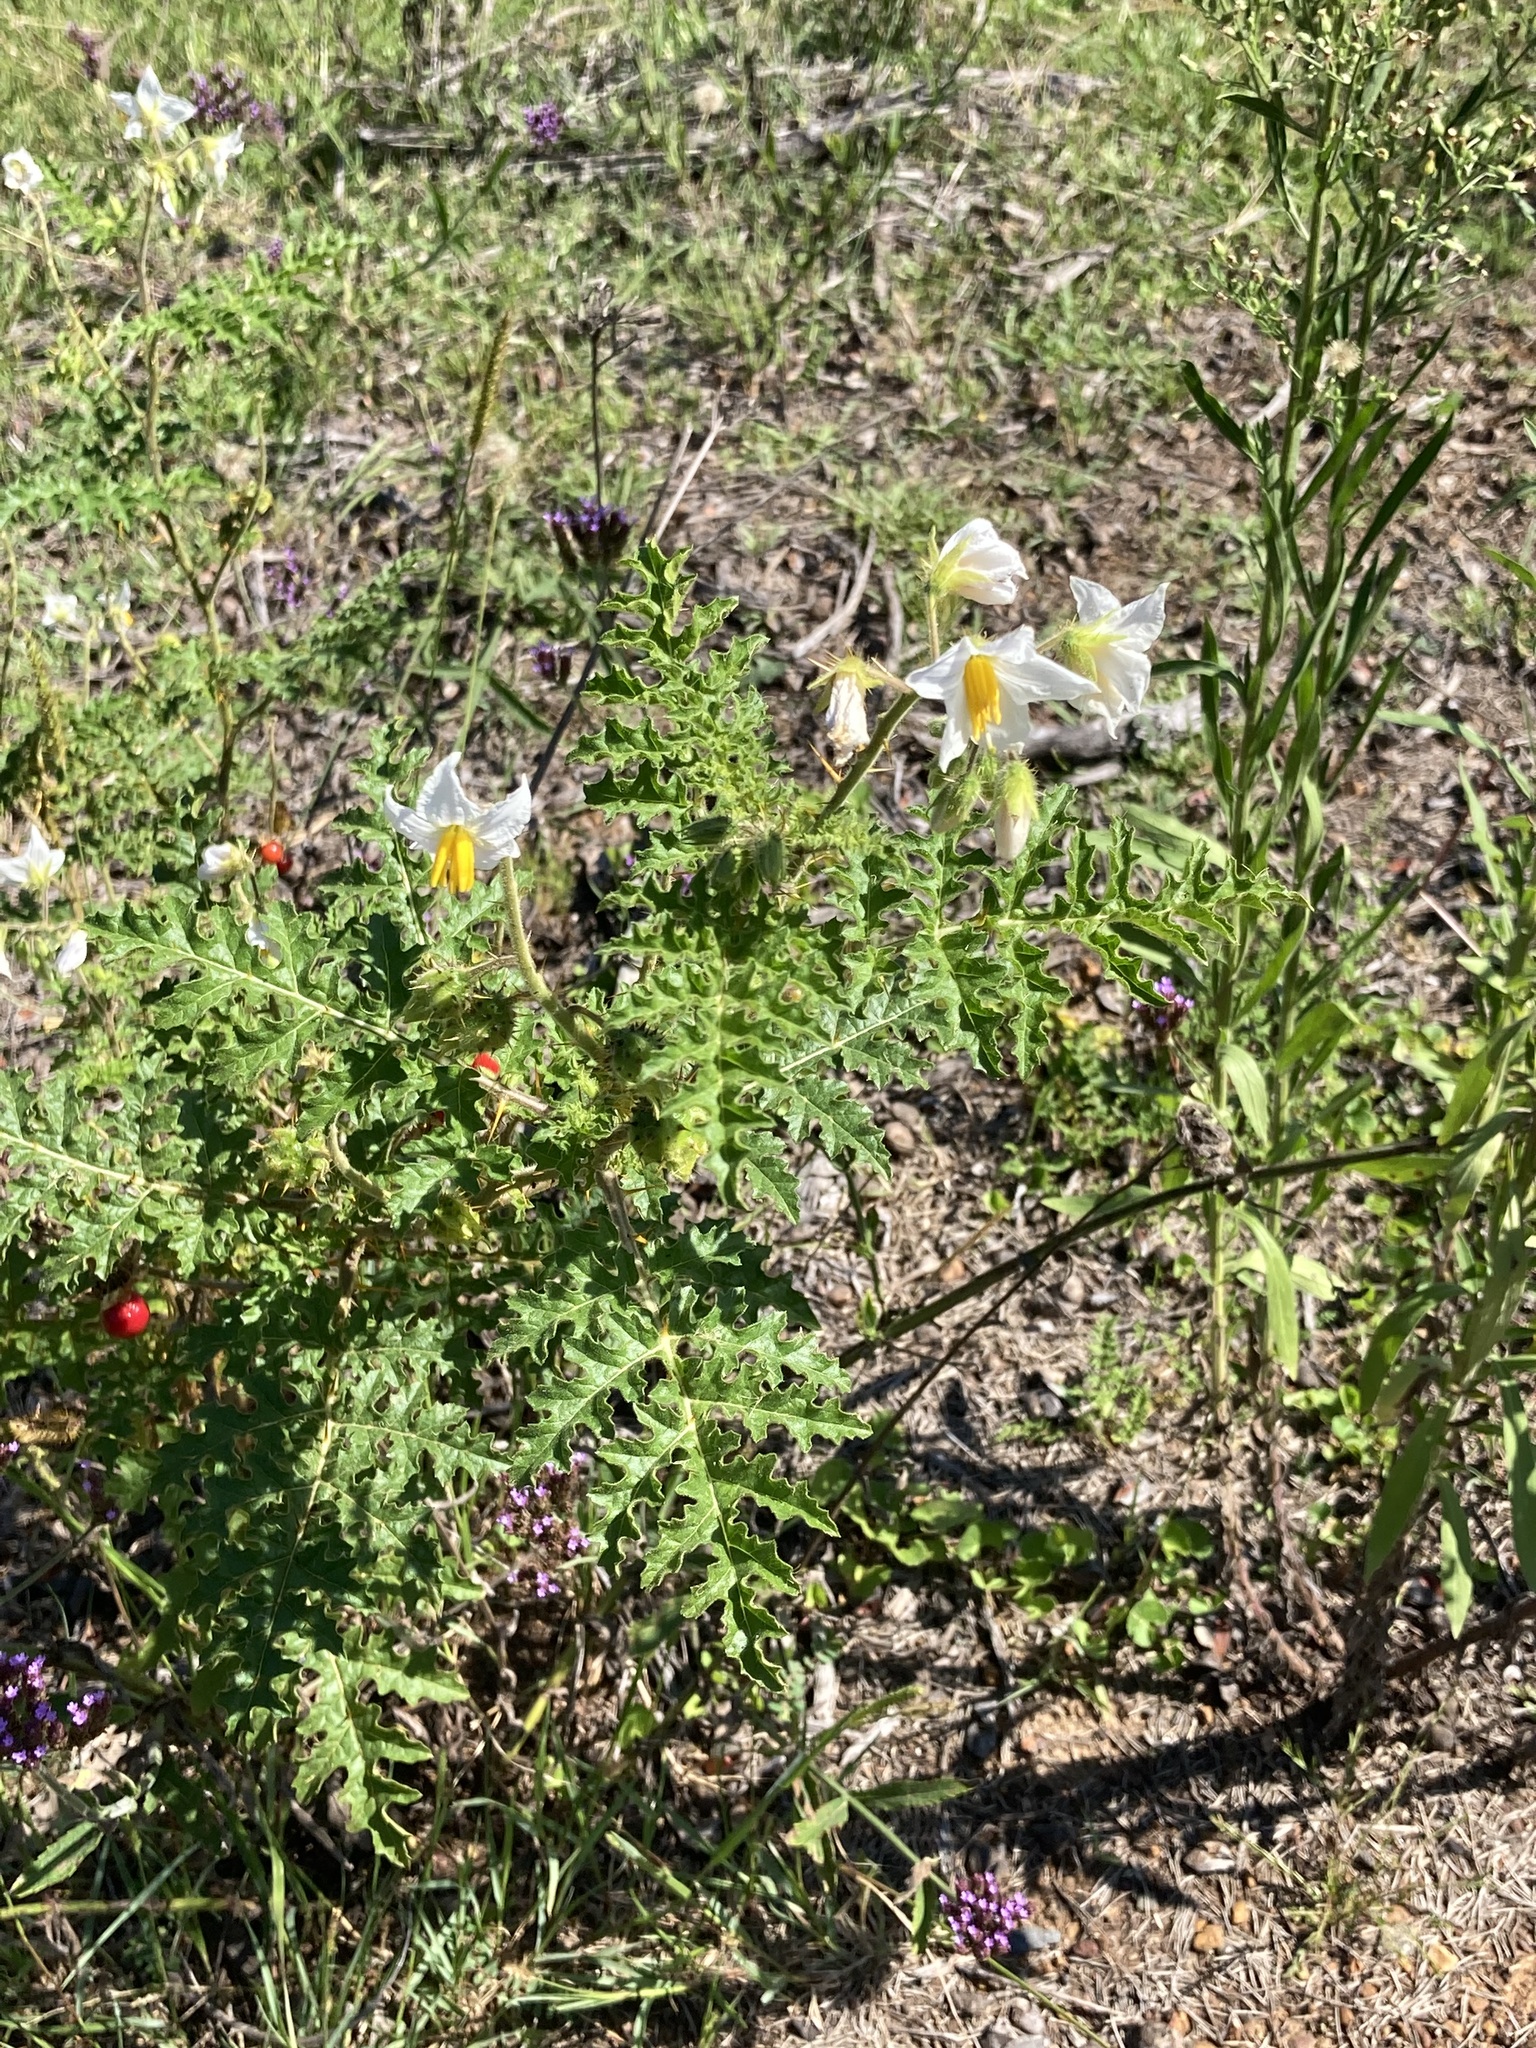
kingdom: Plantae
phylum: Tracheophyta
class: Magnoliopsida
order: Solanales
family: Solanaceae
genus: Solanum
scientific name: Solanum sisymbriifolium
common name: Red buffalo-bur
